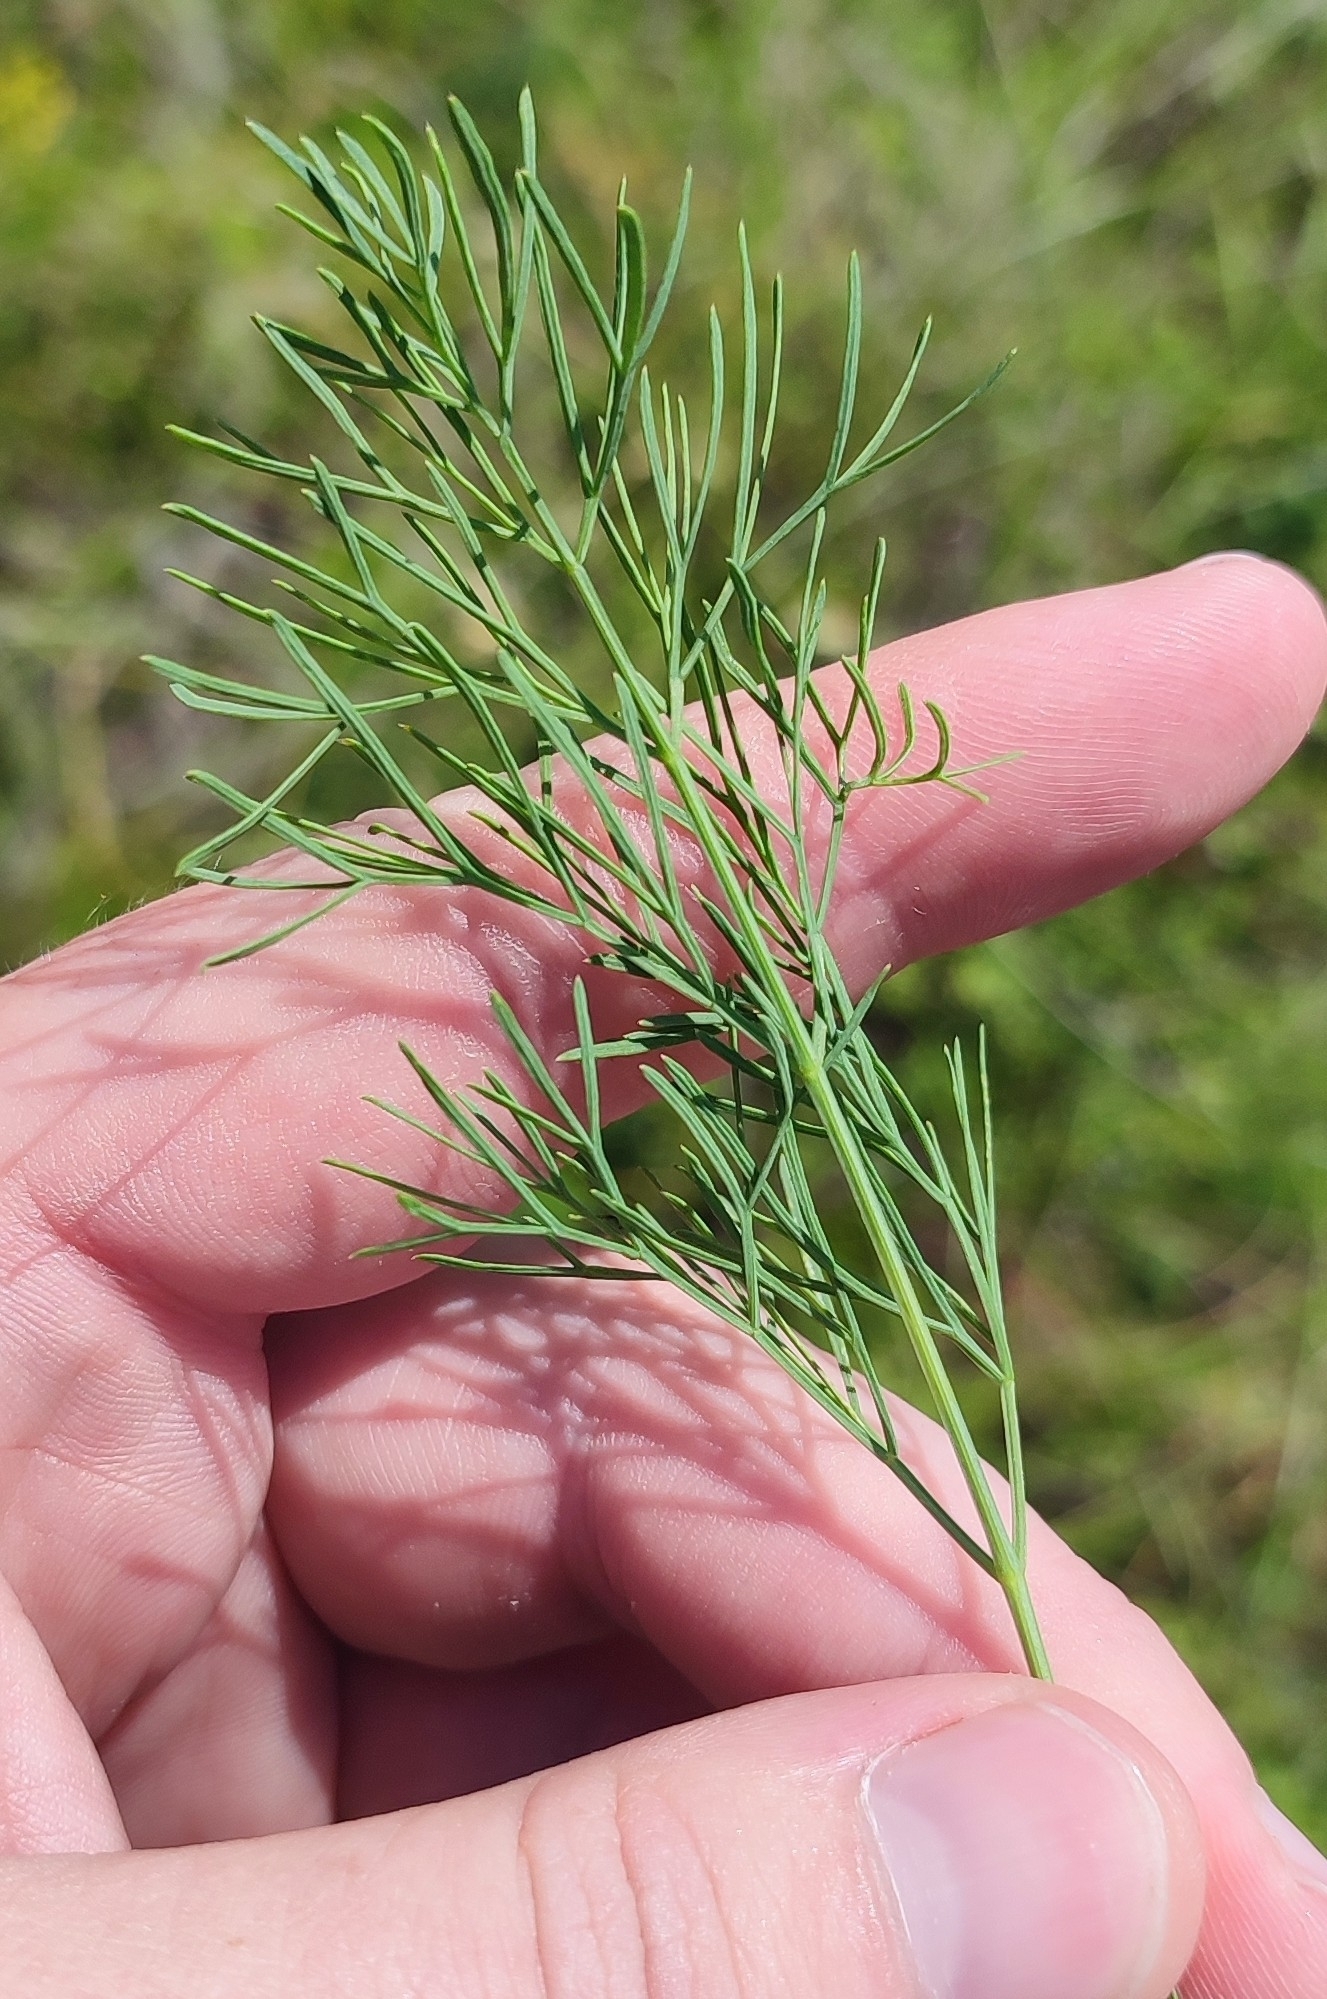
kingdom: Plantae
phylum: Tracheophyta
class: Magnoliopsida
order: Apiales
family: Apiaceae
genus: Seseli
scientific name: Seseli ledebourii
